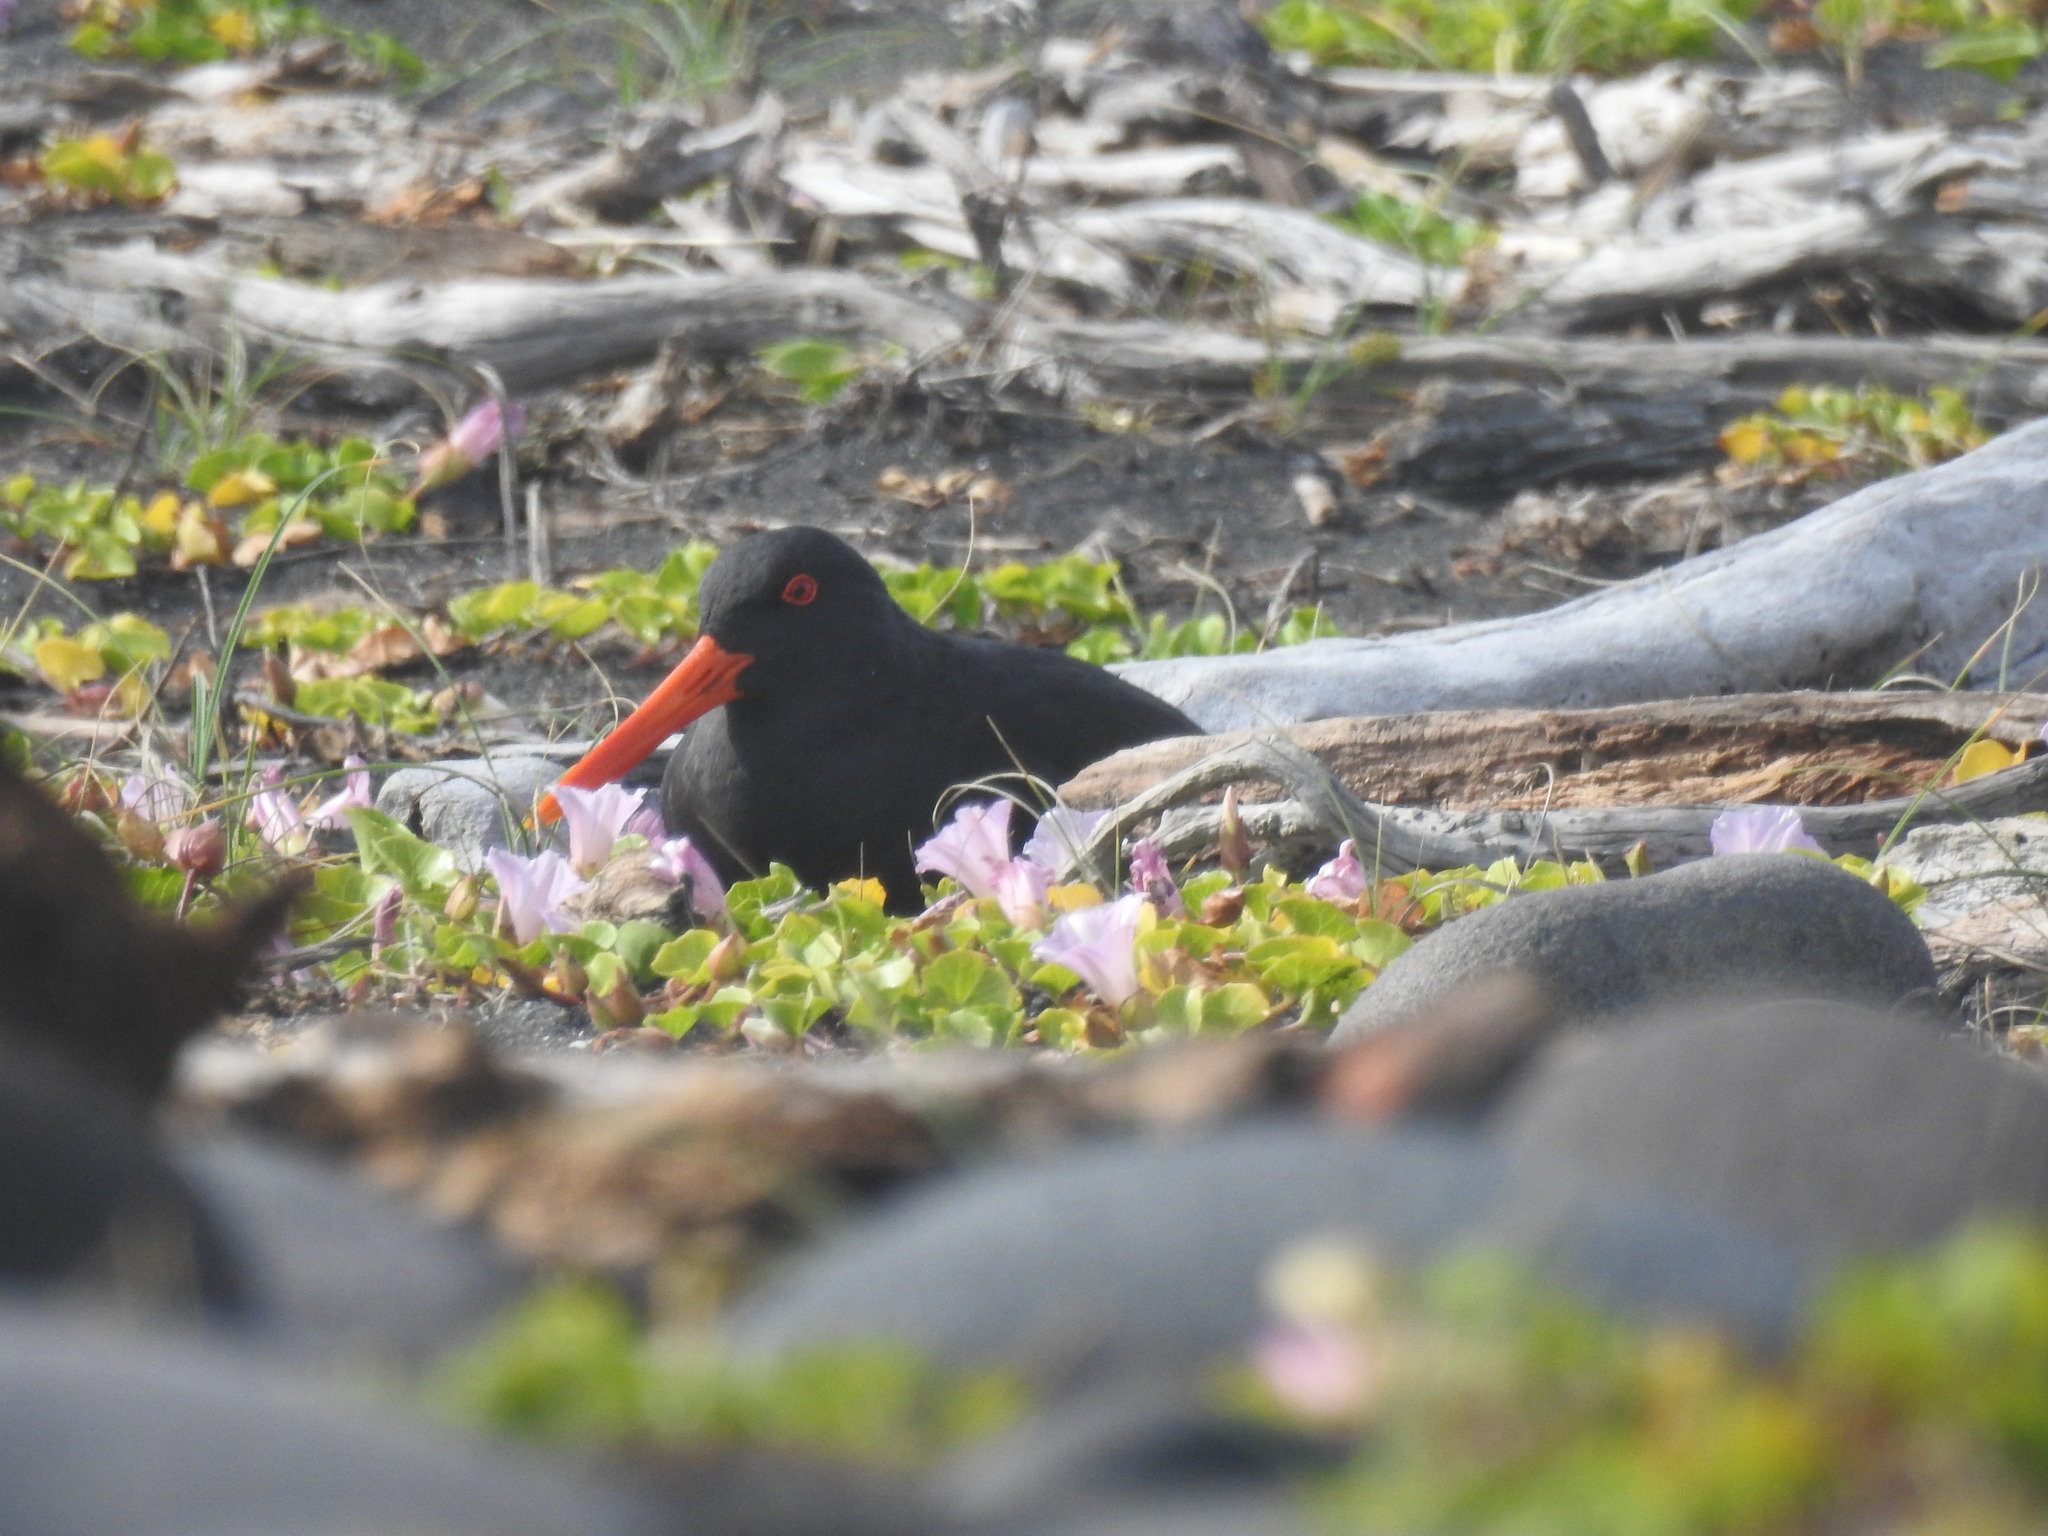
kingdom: Animalia
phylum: Chordata
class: Aves
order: Charadriiformes
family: Haematopodidae
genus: Haematopus
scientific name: Haematopus unicolor
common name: Variable oystercatcher
